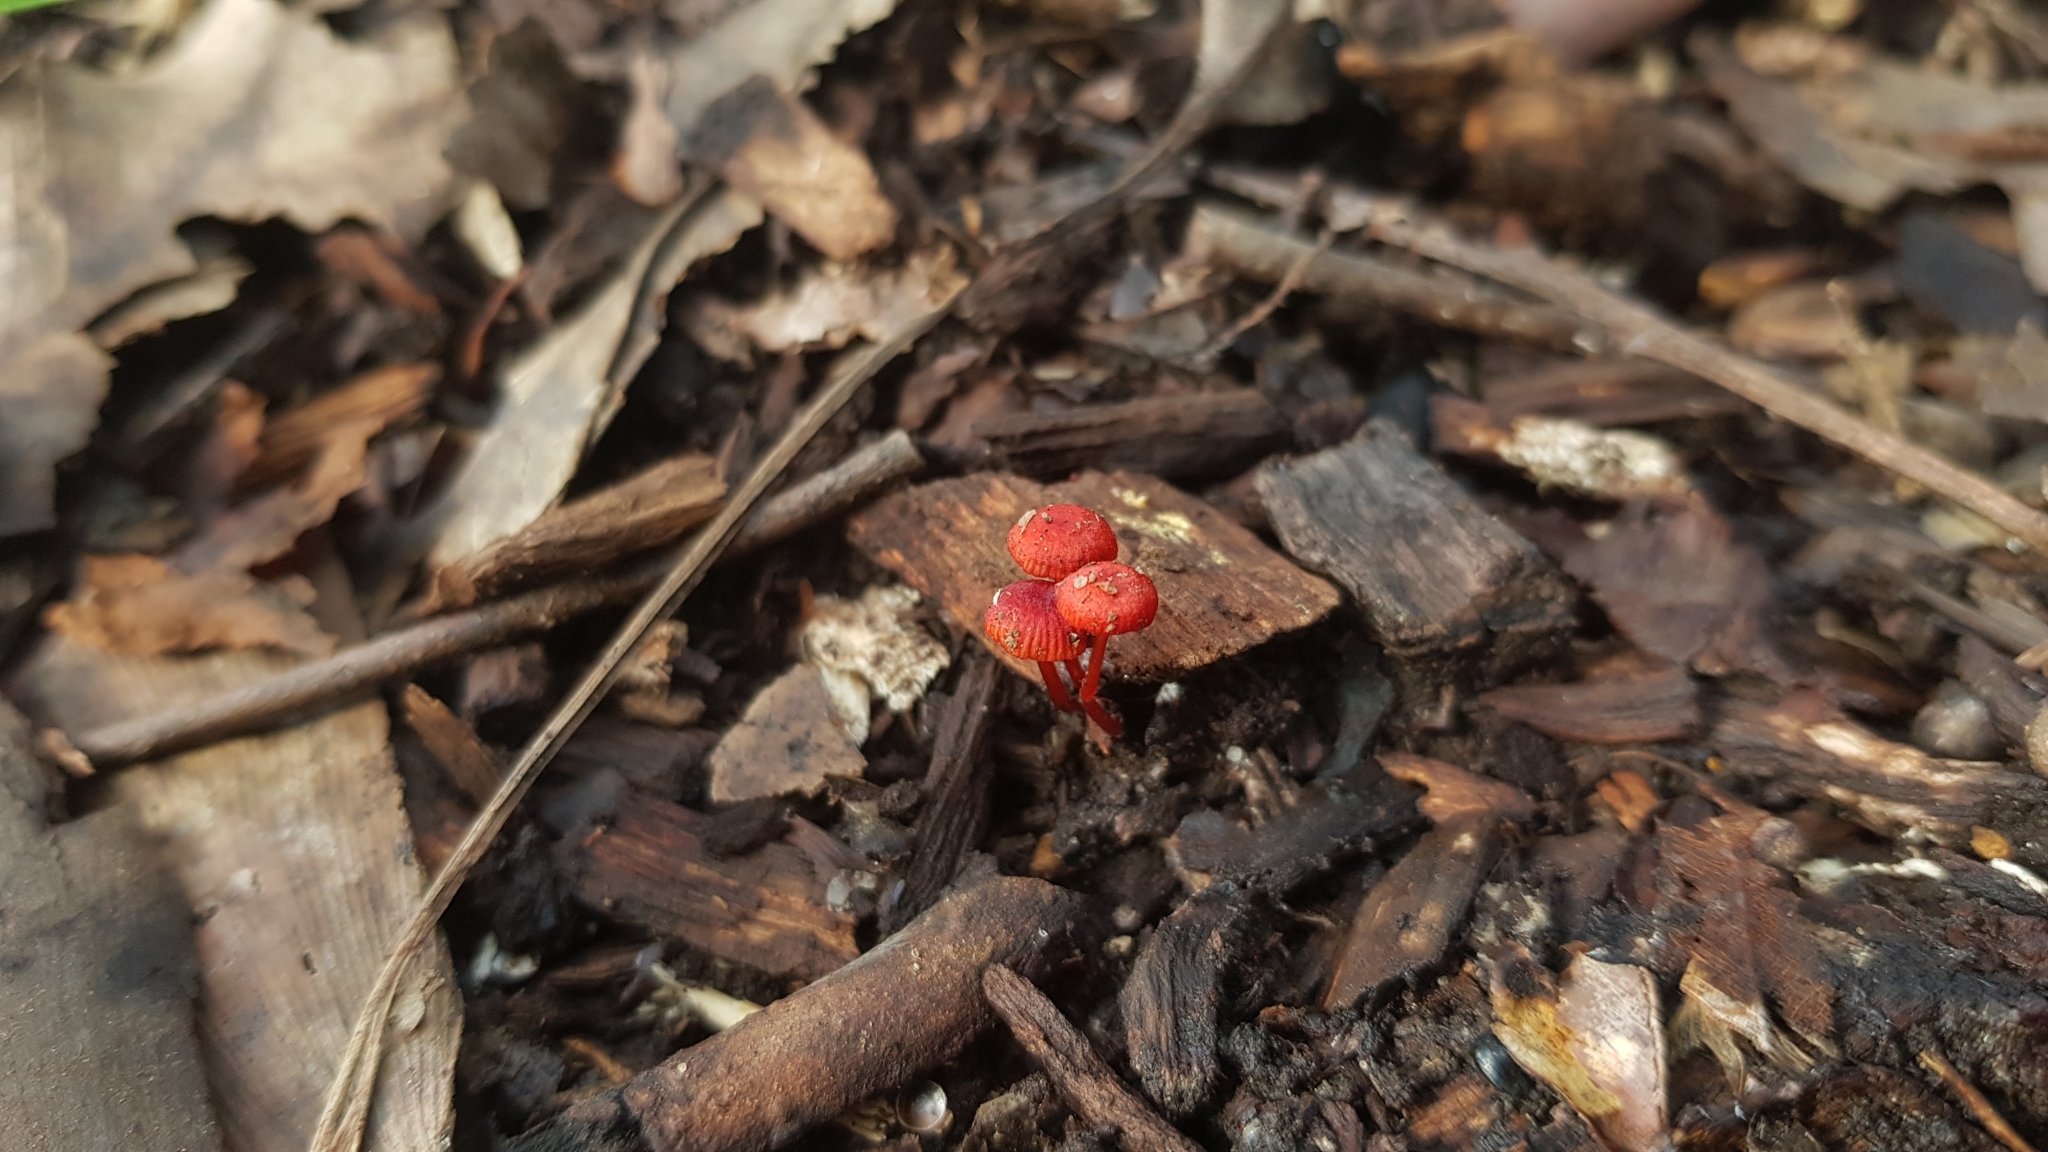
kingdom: Fungi
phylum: Basidiomycota
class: Agaricomycetes
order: Agaricales
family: Mycenaceae
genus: Cruentomycena
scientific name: Cruentomycena viscidocruenta
